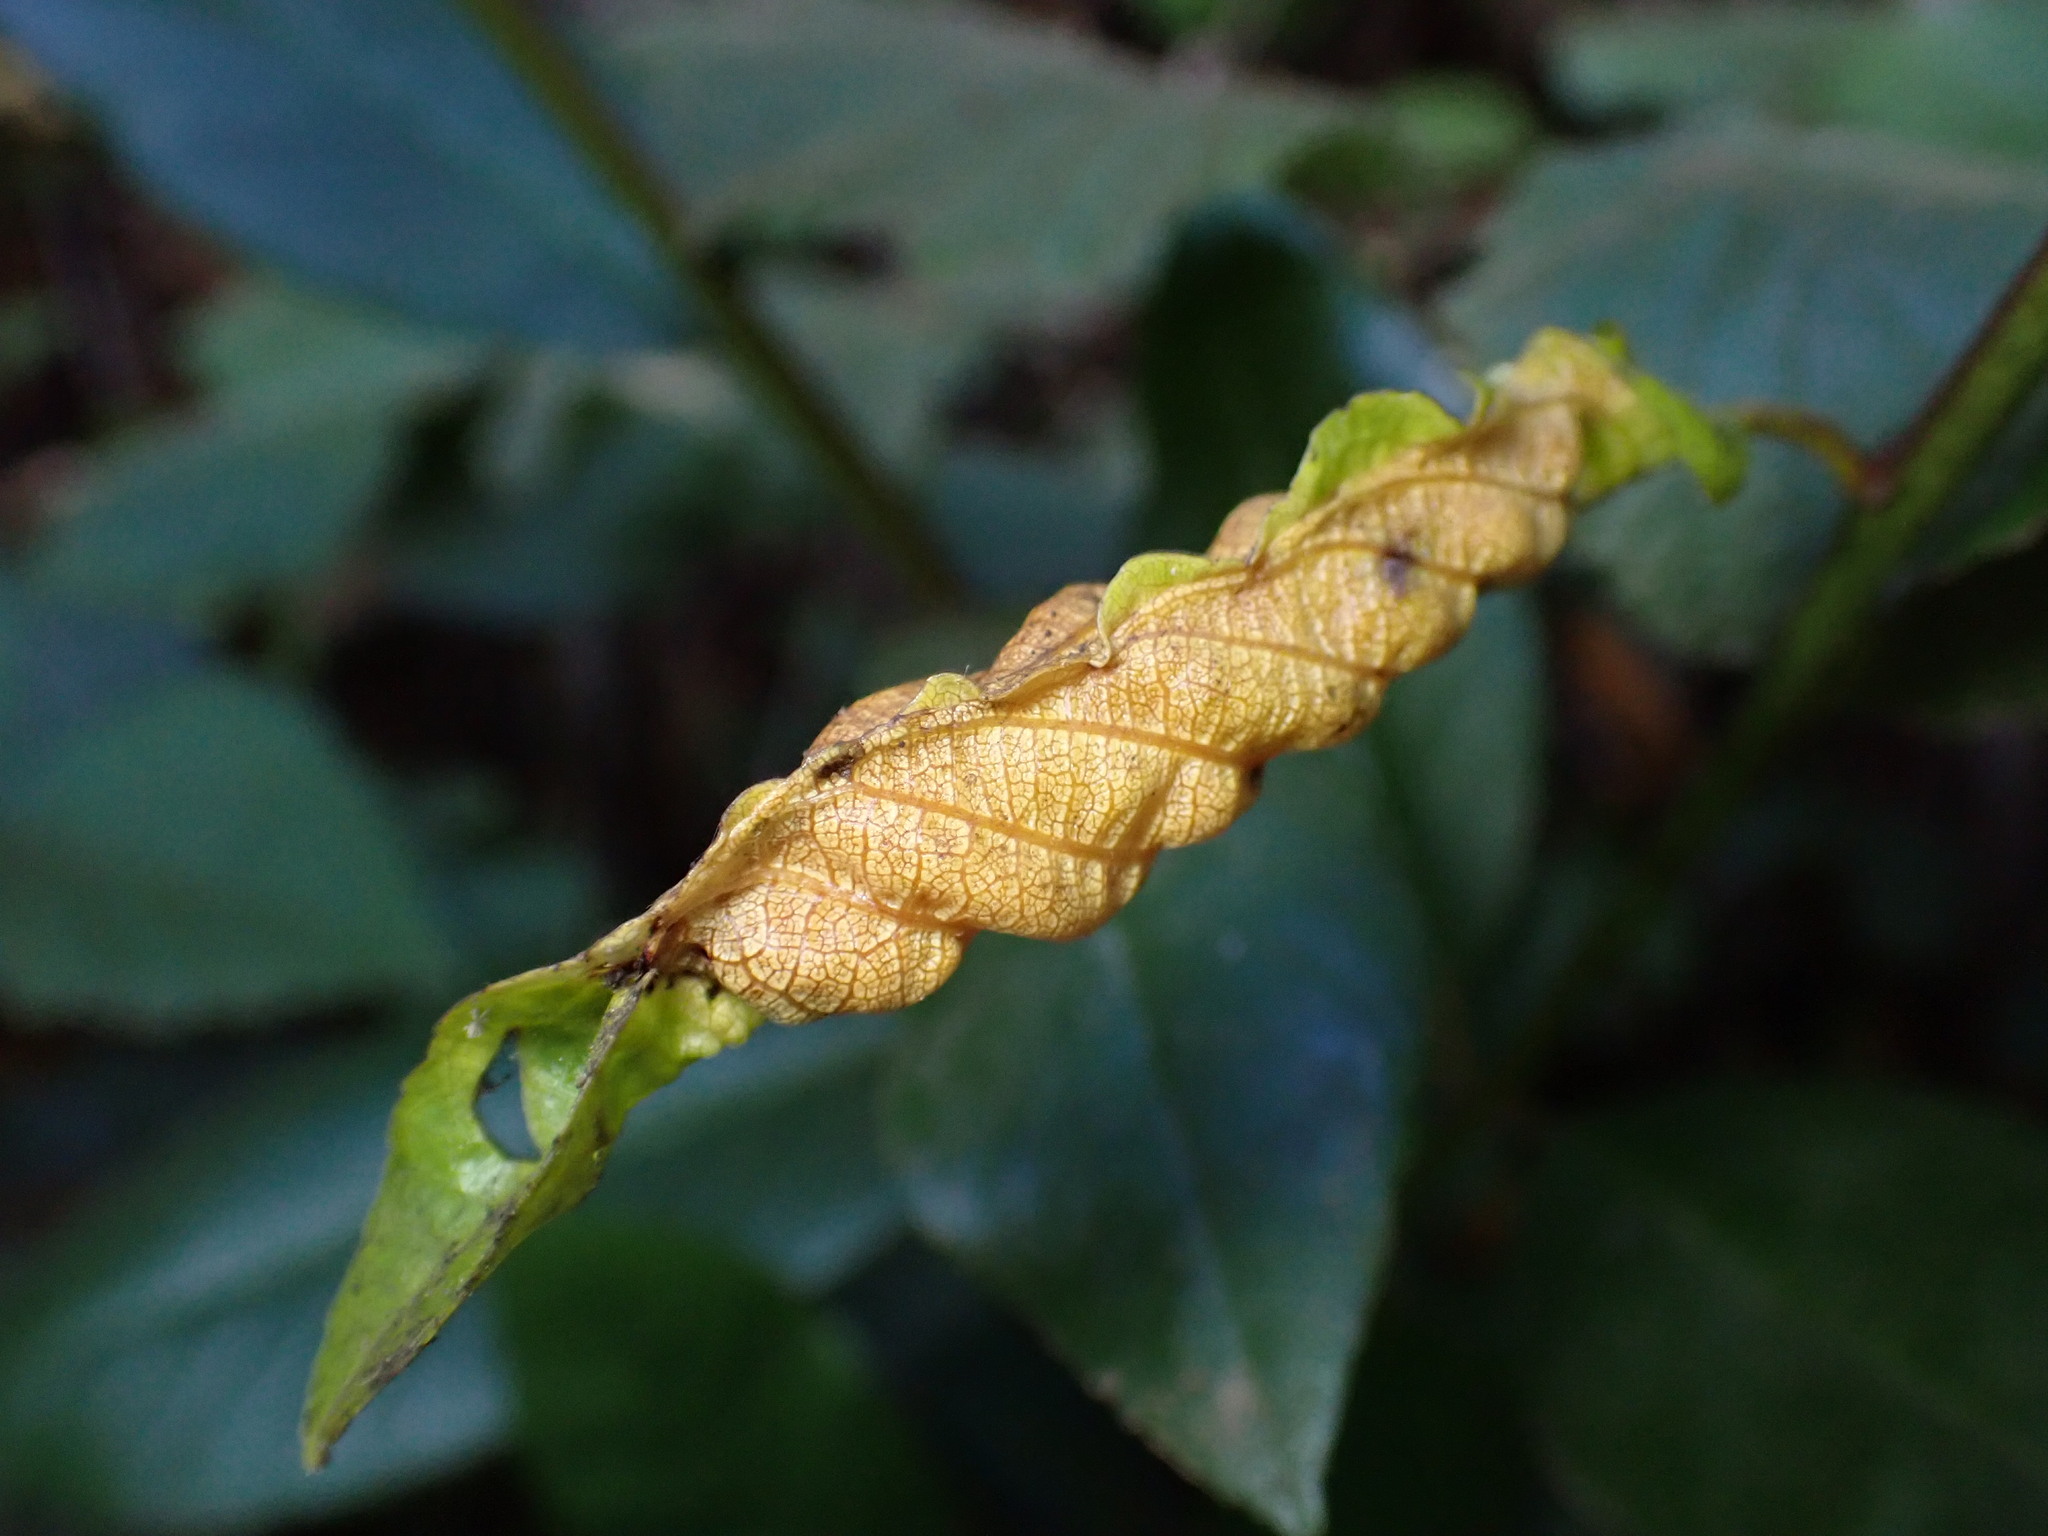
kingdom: Animalia
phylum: Arthropoda
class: Insecta
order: Lepidoptera
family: Cosmopterigidae
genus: Sorhagenia
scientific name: Sorhagenia nimbosus
